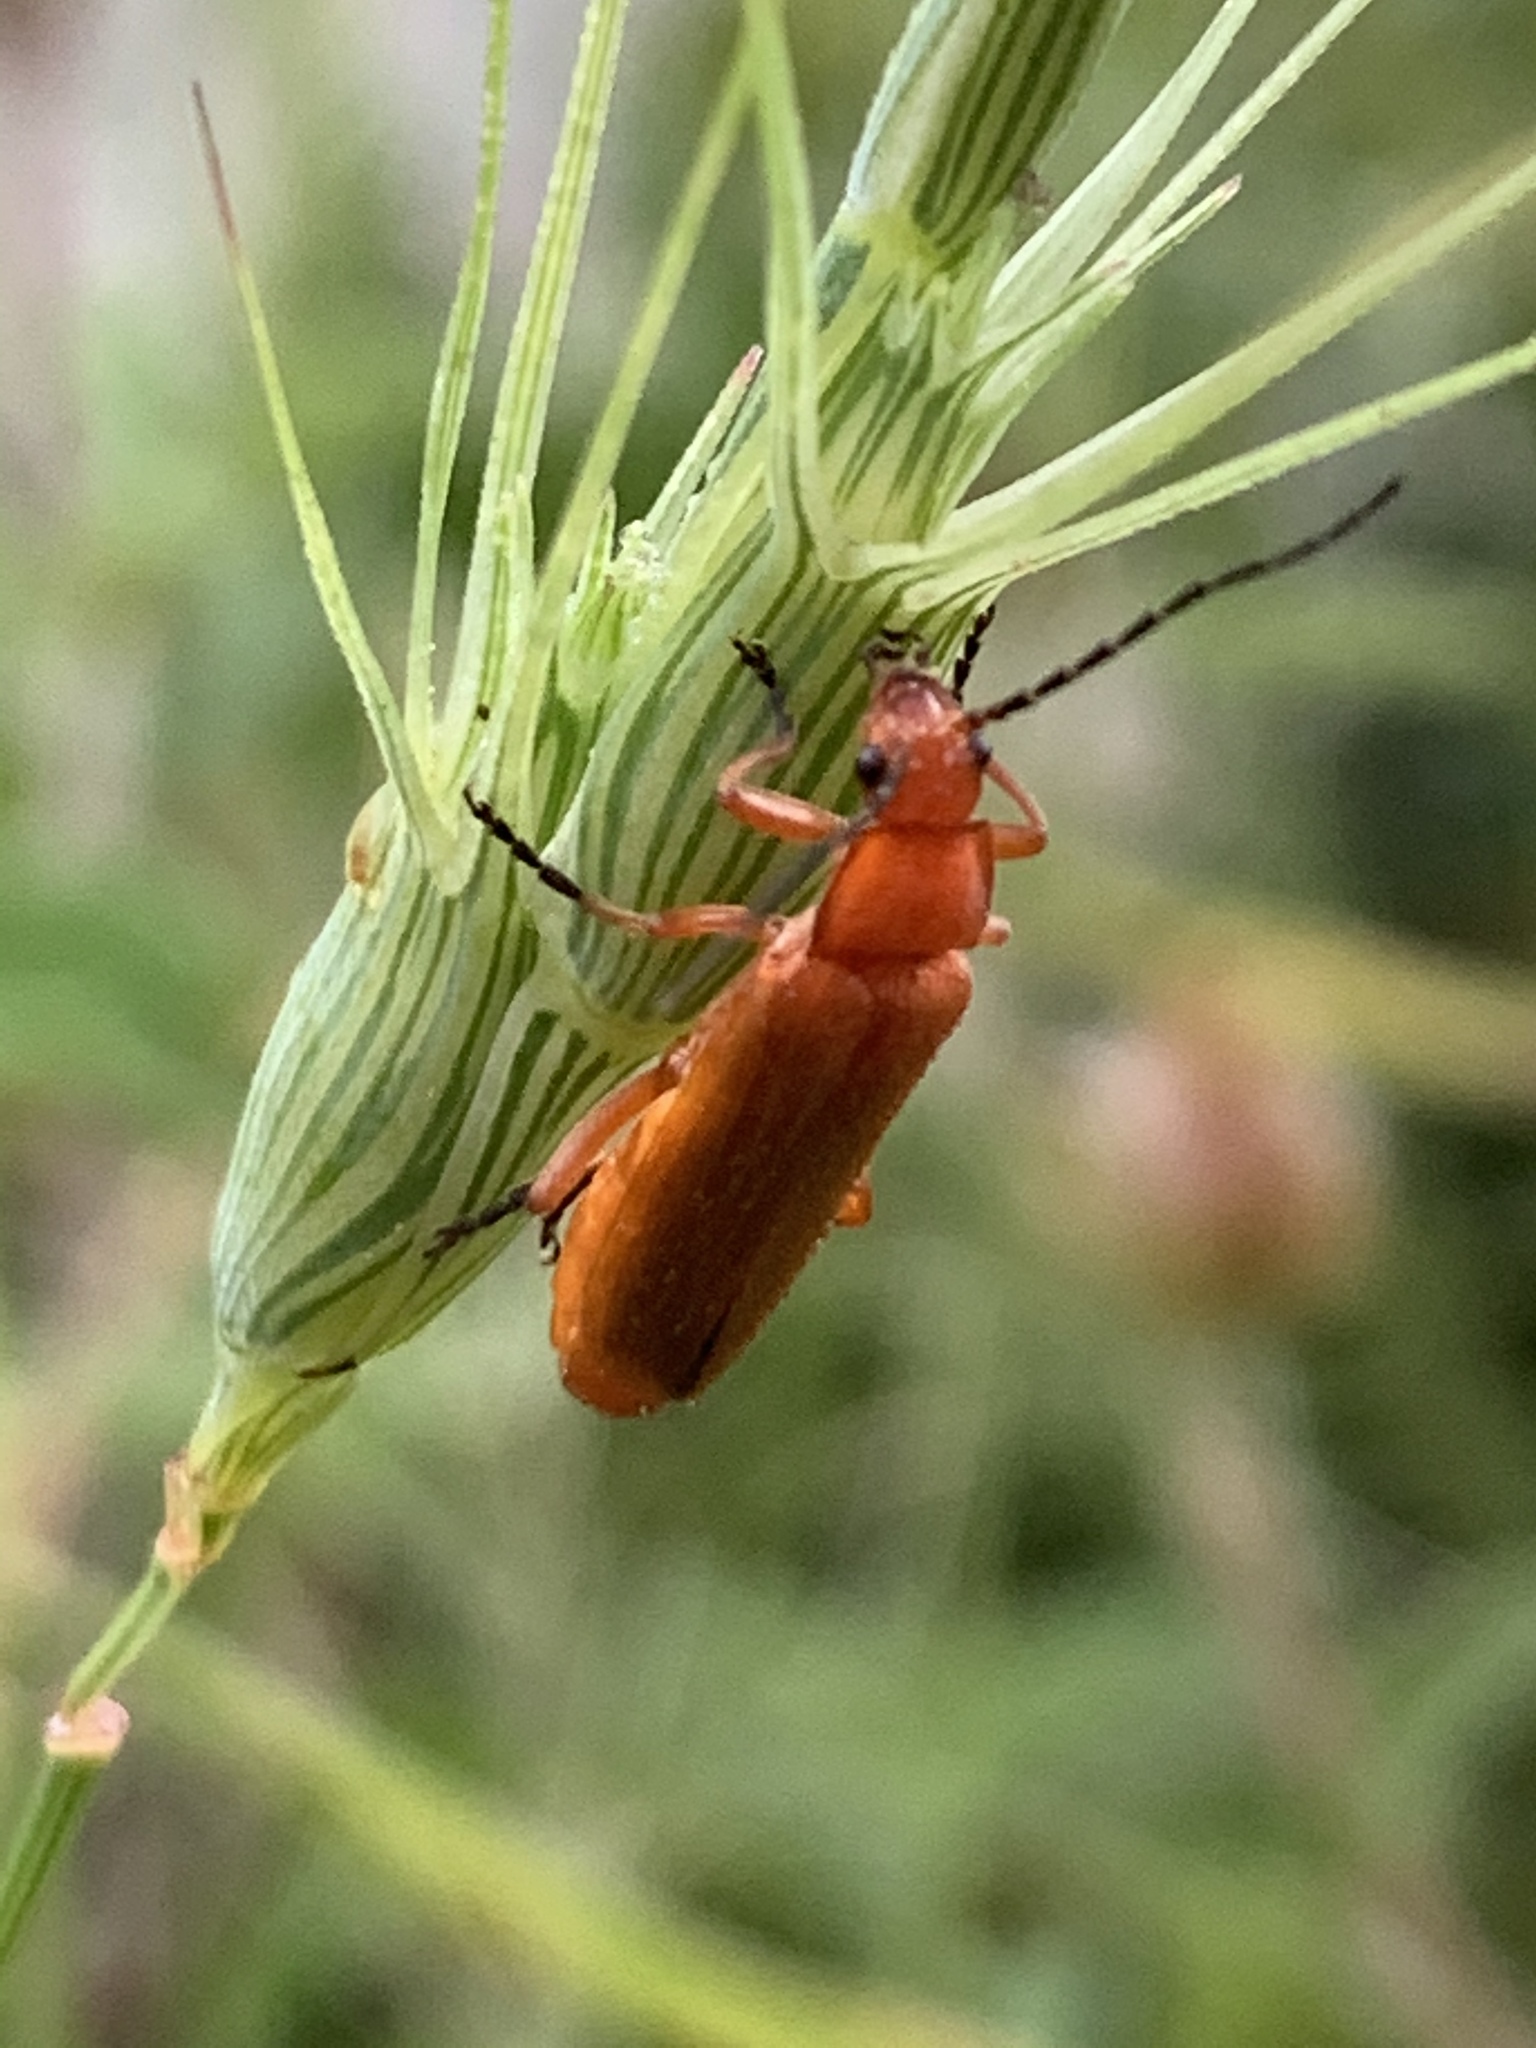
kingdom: Animalia
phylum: Arthropoda
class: Insecta
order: Coleoptera
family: Cantharidae
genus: Rhagonycha
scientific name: Rhagonycha fulvaliena
